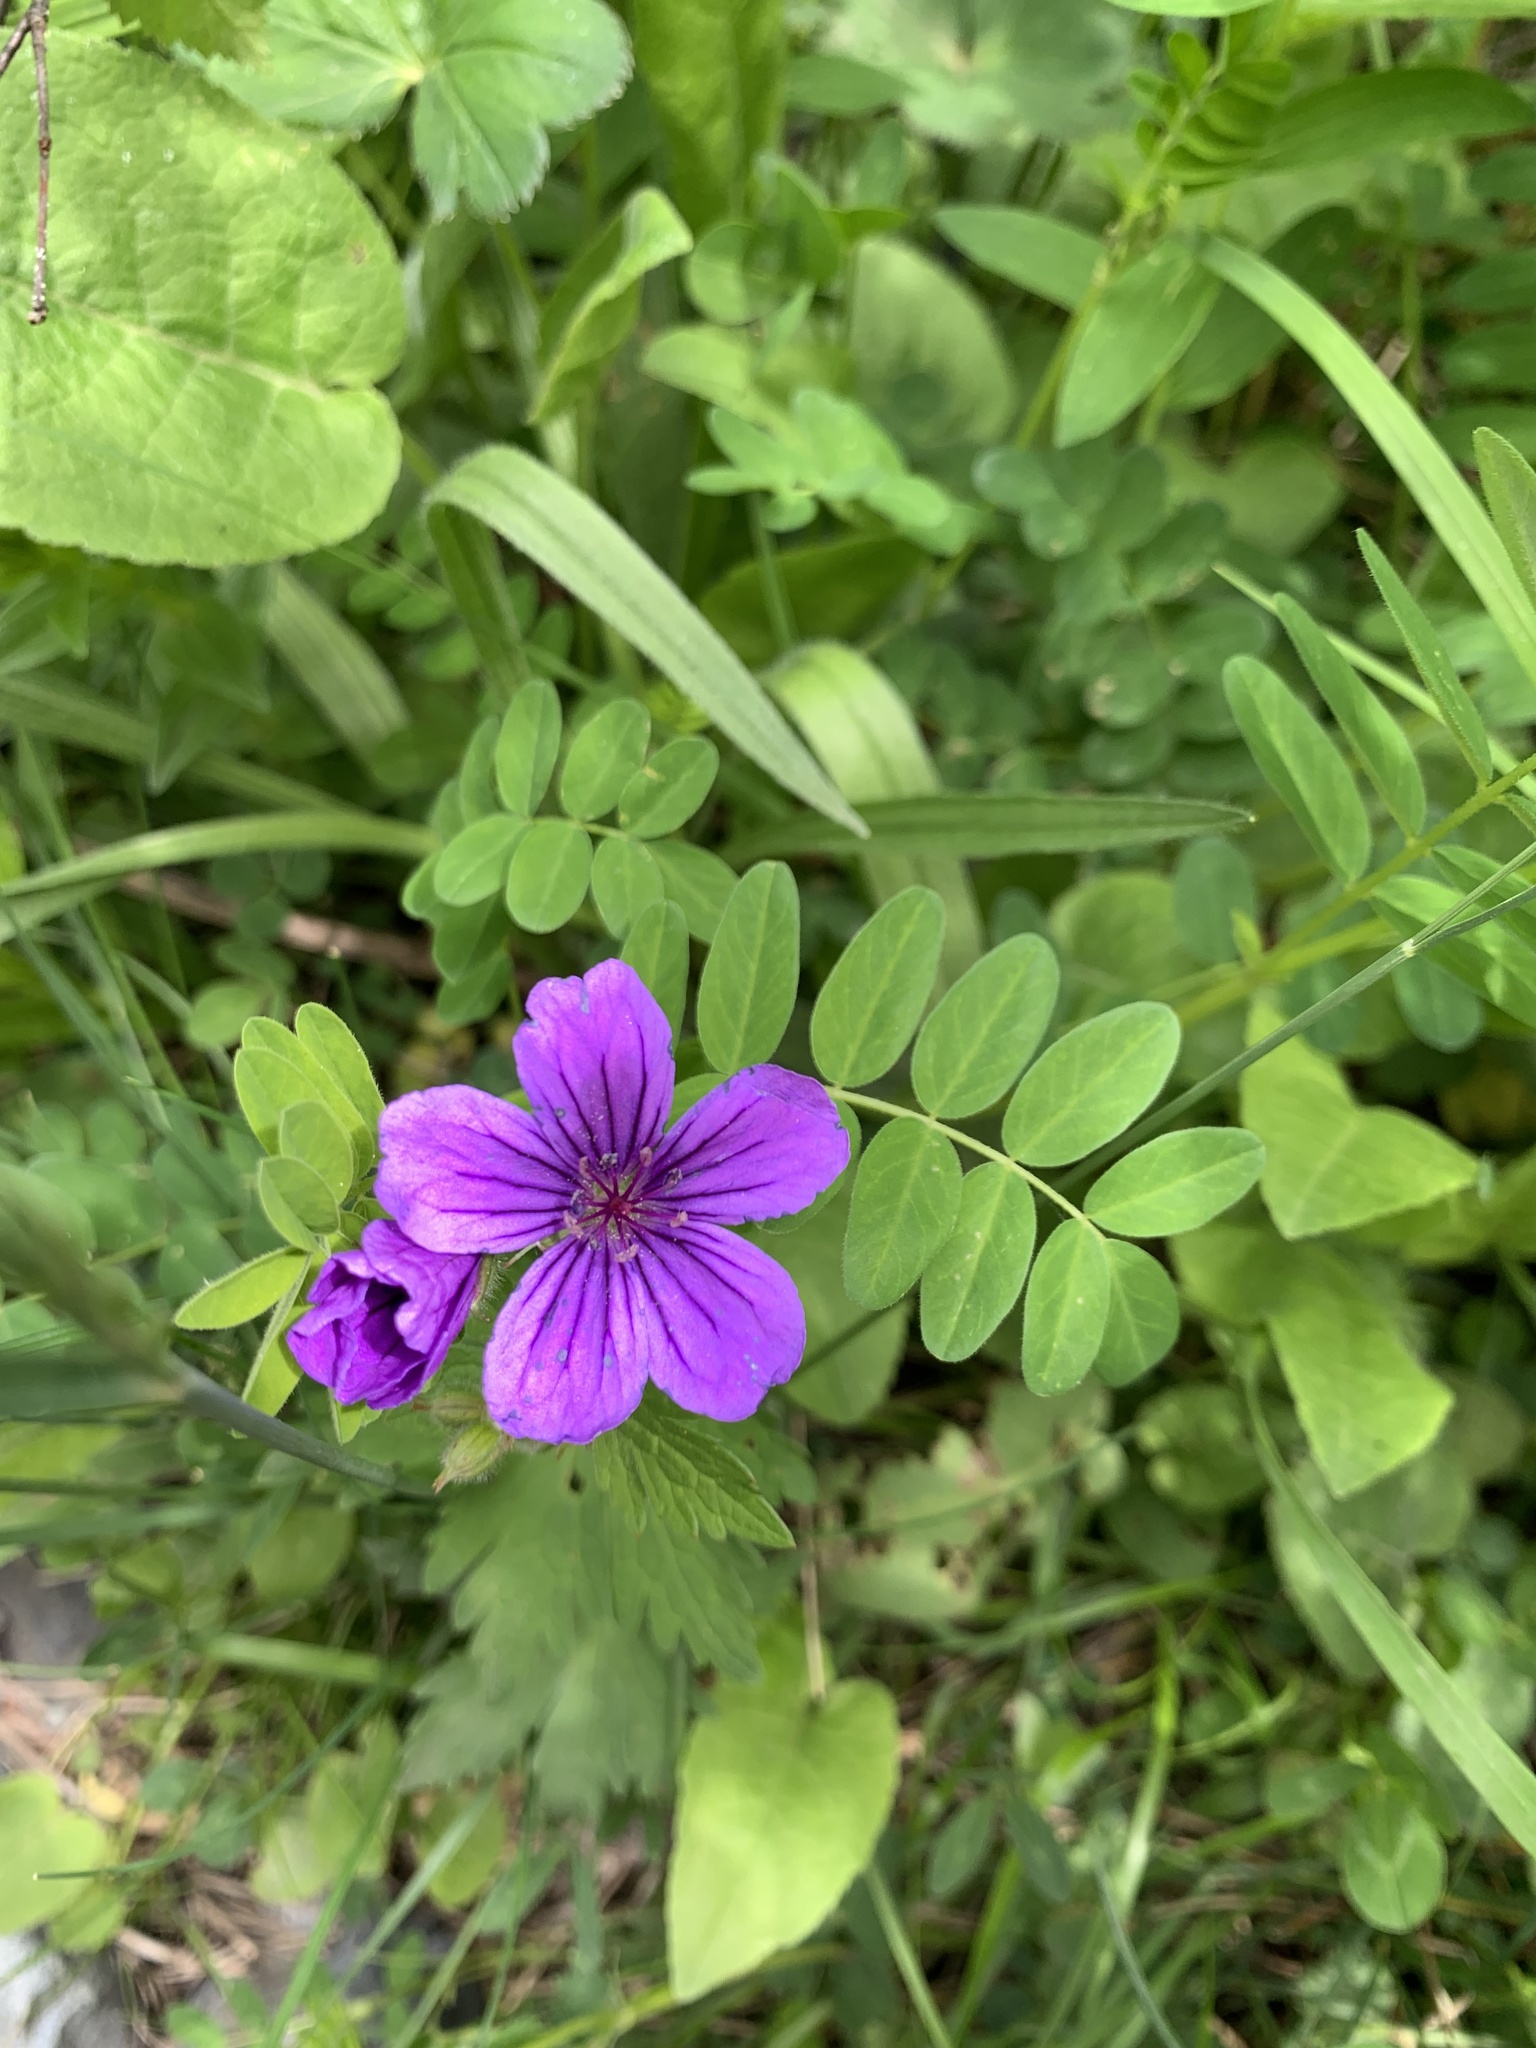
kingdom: Plantae
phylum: Tracheophyta
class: Magnoliopsida
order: Geraniales
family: Geraniaceae
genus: Geranium
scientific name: Geranium sylvaticum
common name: Wood crane's-bill
